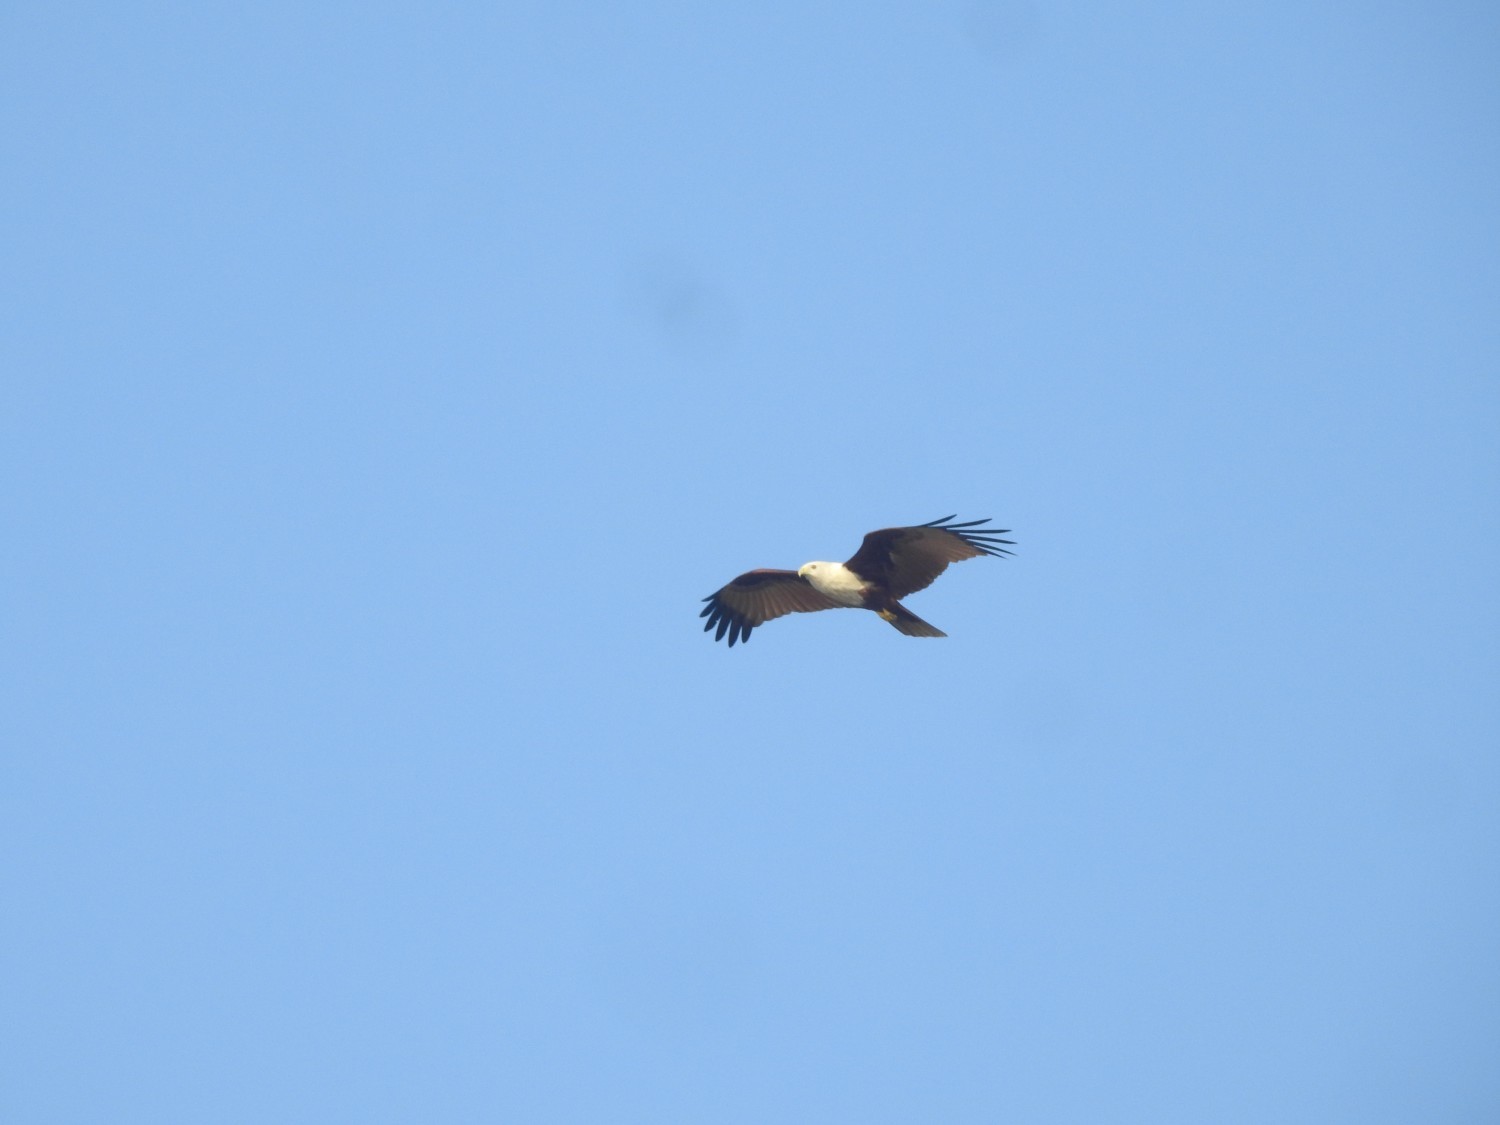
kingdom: Animalia
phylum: Chordata
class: Aves
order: Accipitriformes
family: Accipitridae
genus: Haliastur
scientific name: Haliastur indus
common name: Brahminy kite
